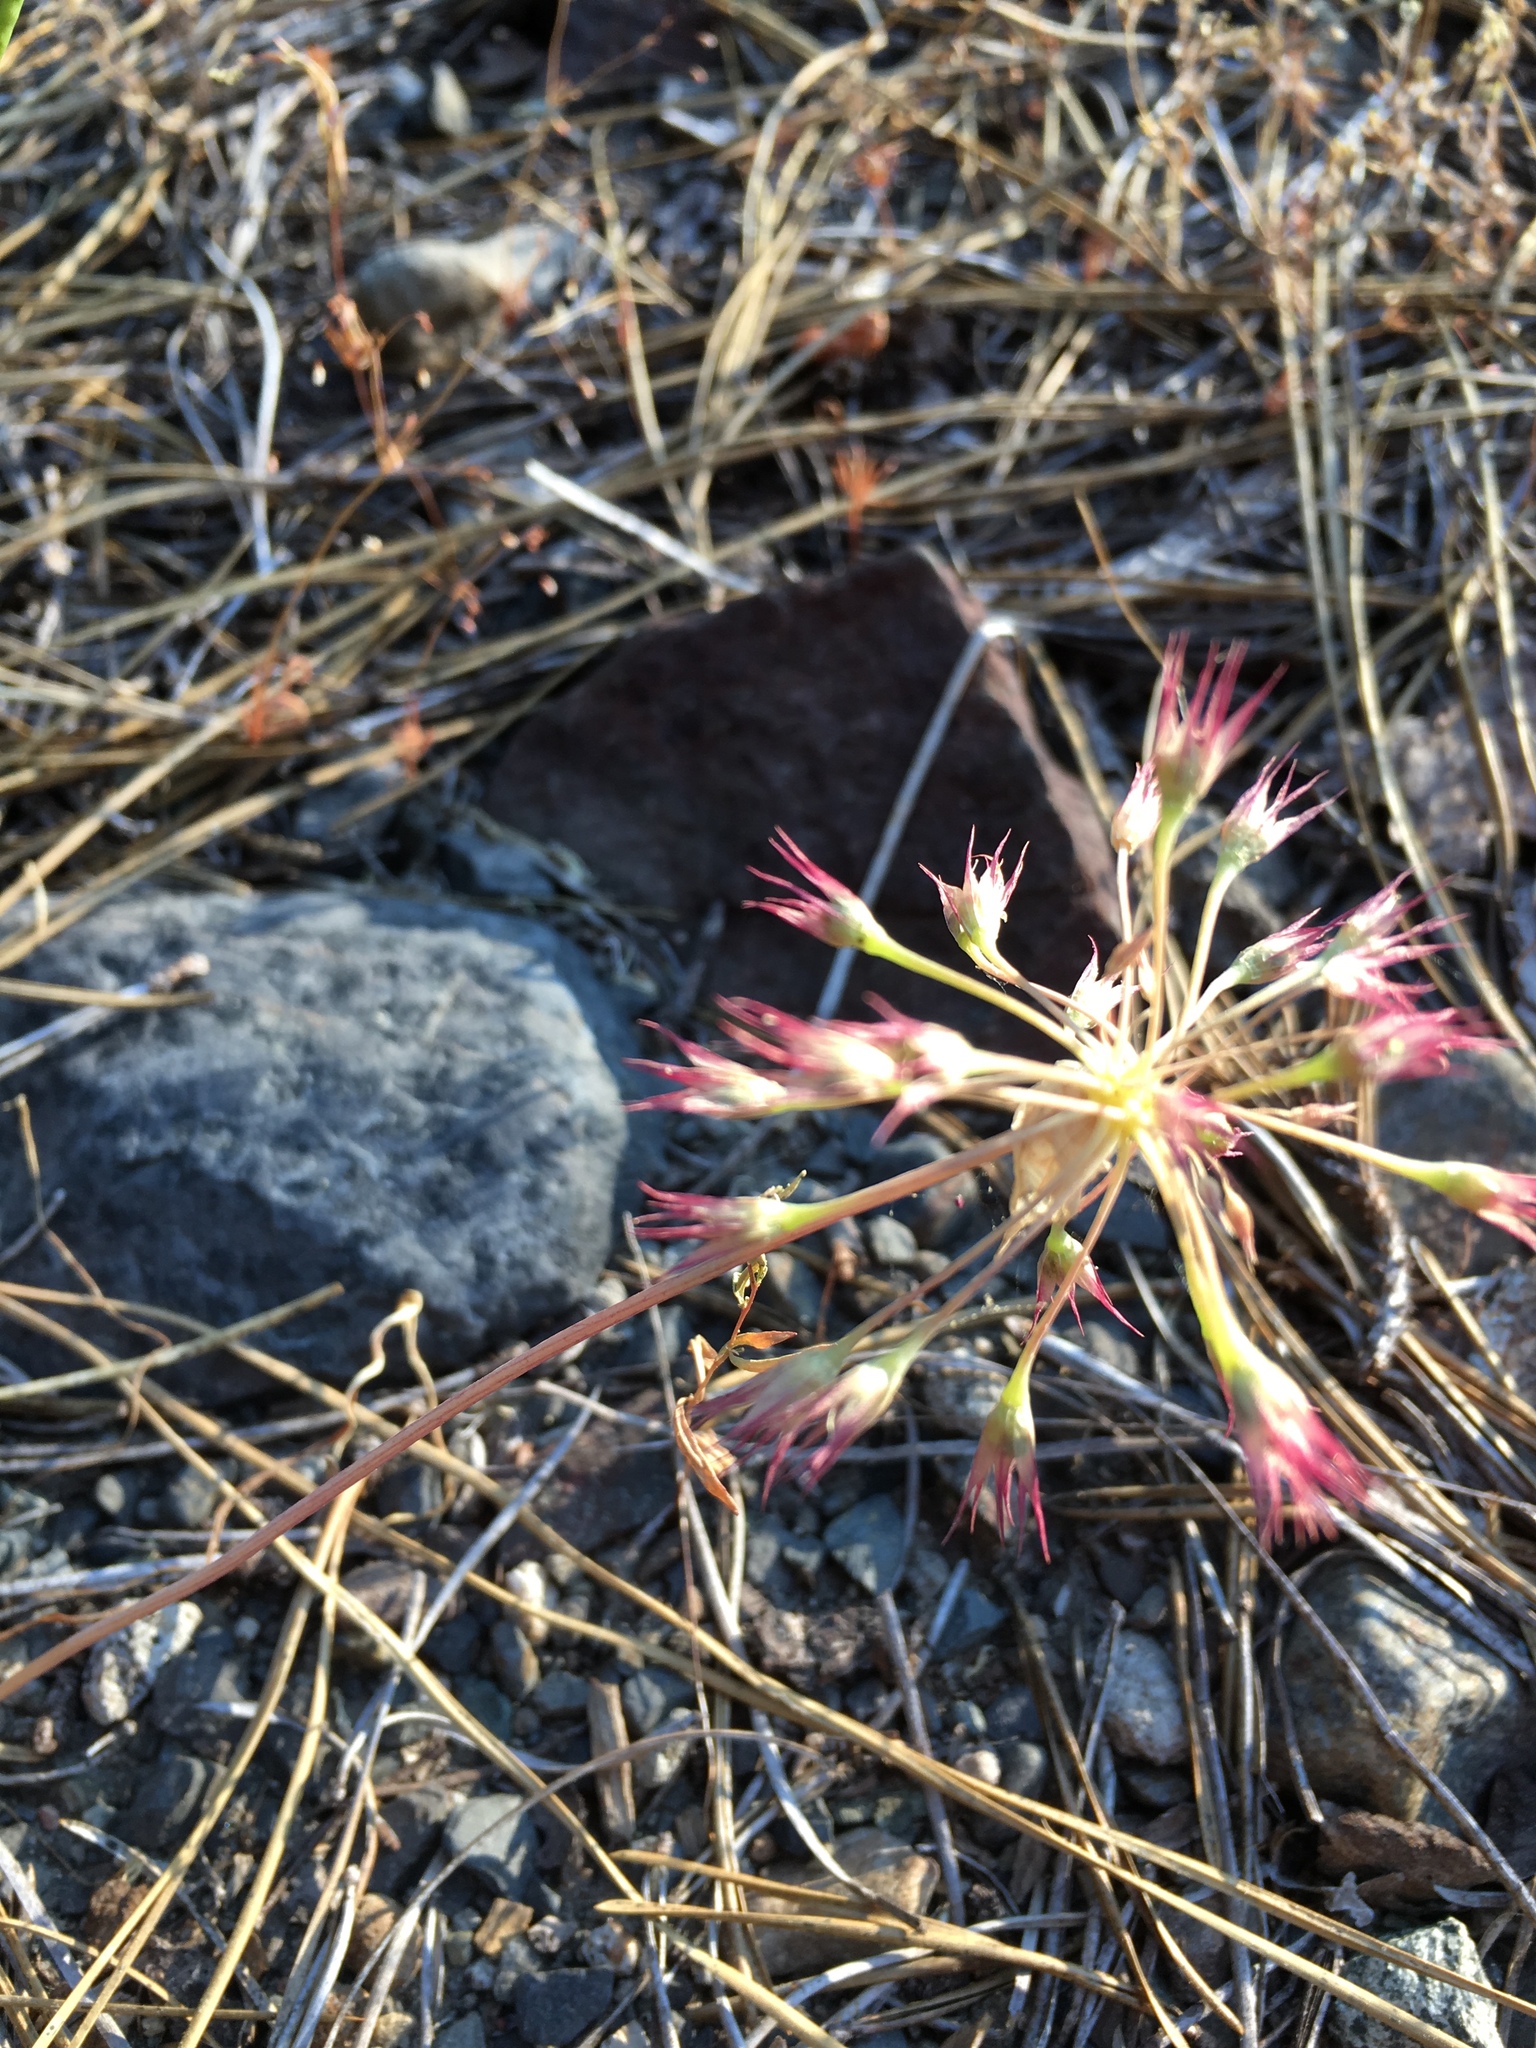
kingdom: Plantae
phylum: Tracheophyta
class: Liliopsida
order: Asparagales
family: Amaryllidaceae
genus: Allium
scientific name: Allium campanulatum
